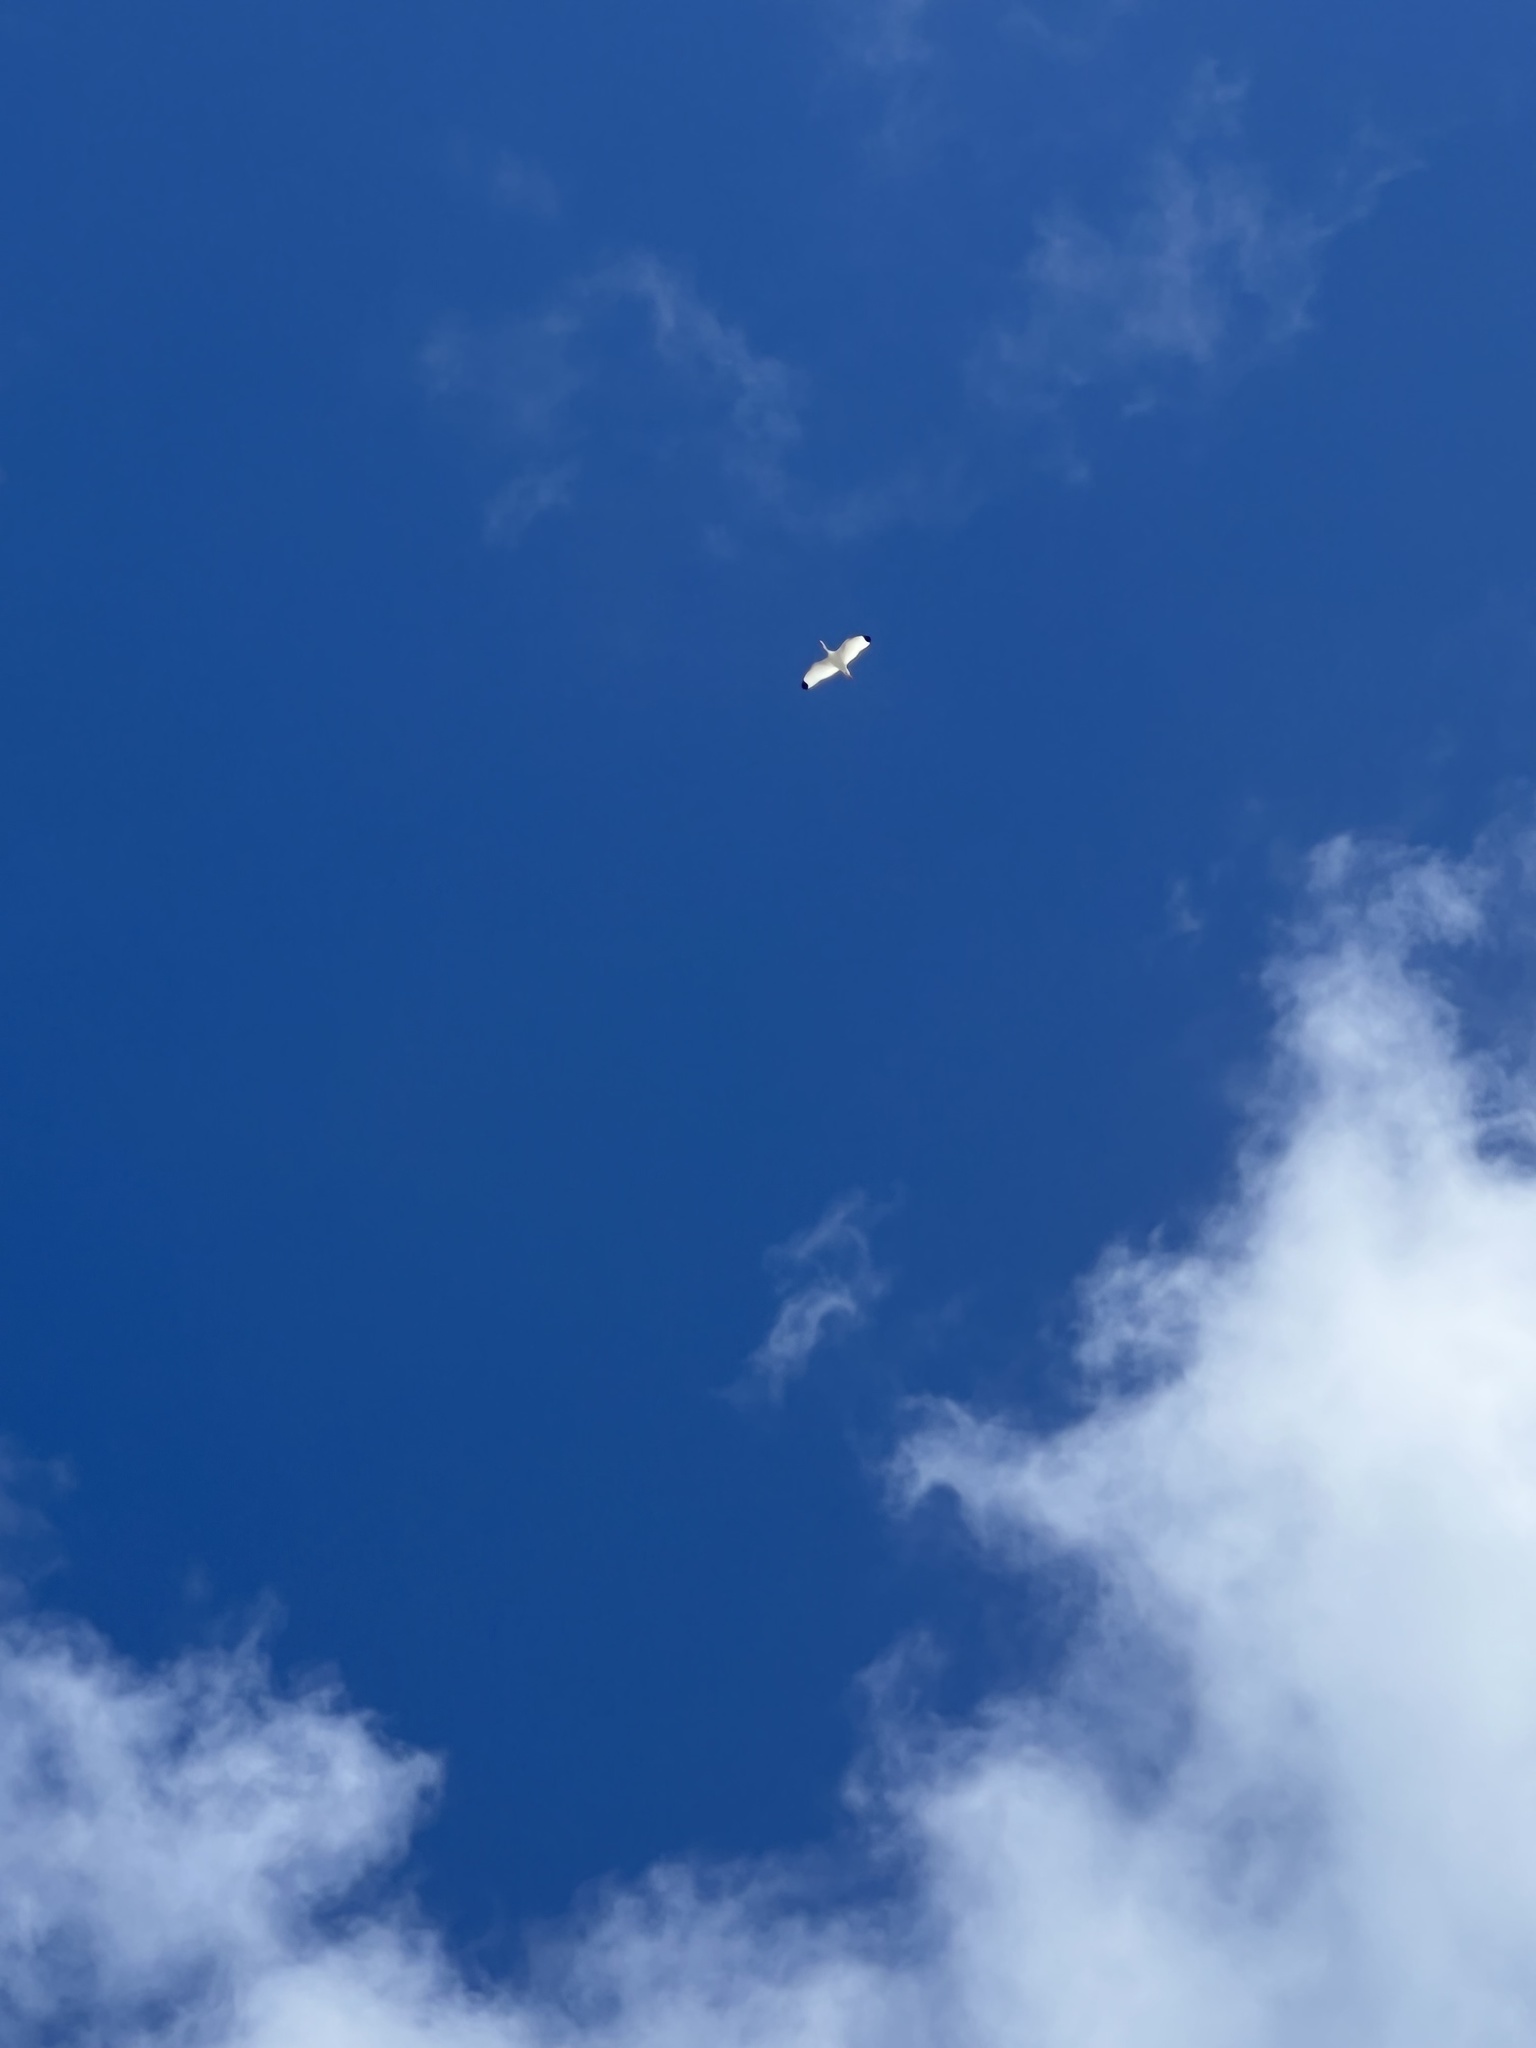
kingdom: Animalia
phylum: Chordata
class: Aves
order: Pelecaniformes
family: Threskiornithidae
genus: Eudocimus
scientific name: Eudocimus albus
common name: White ibis
